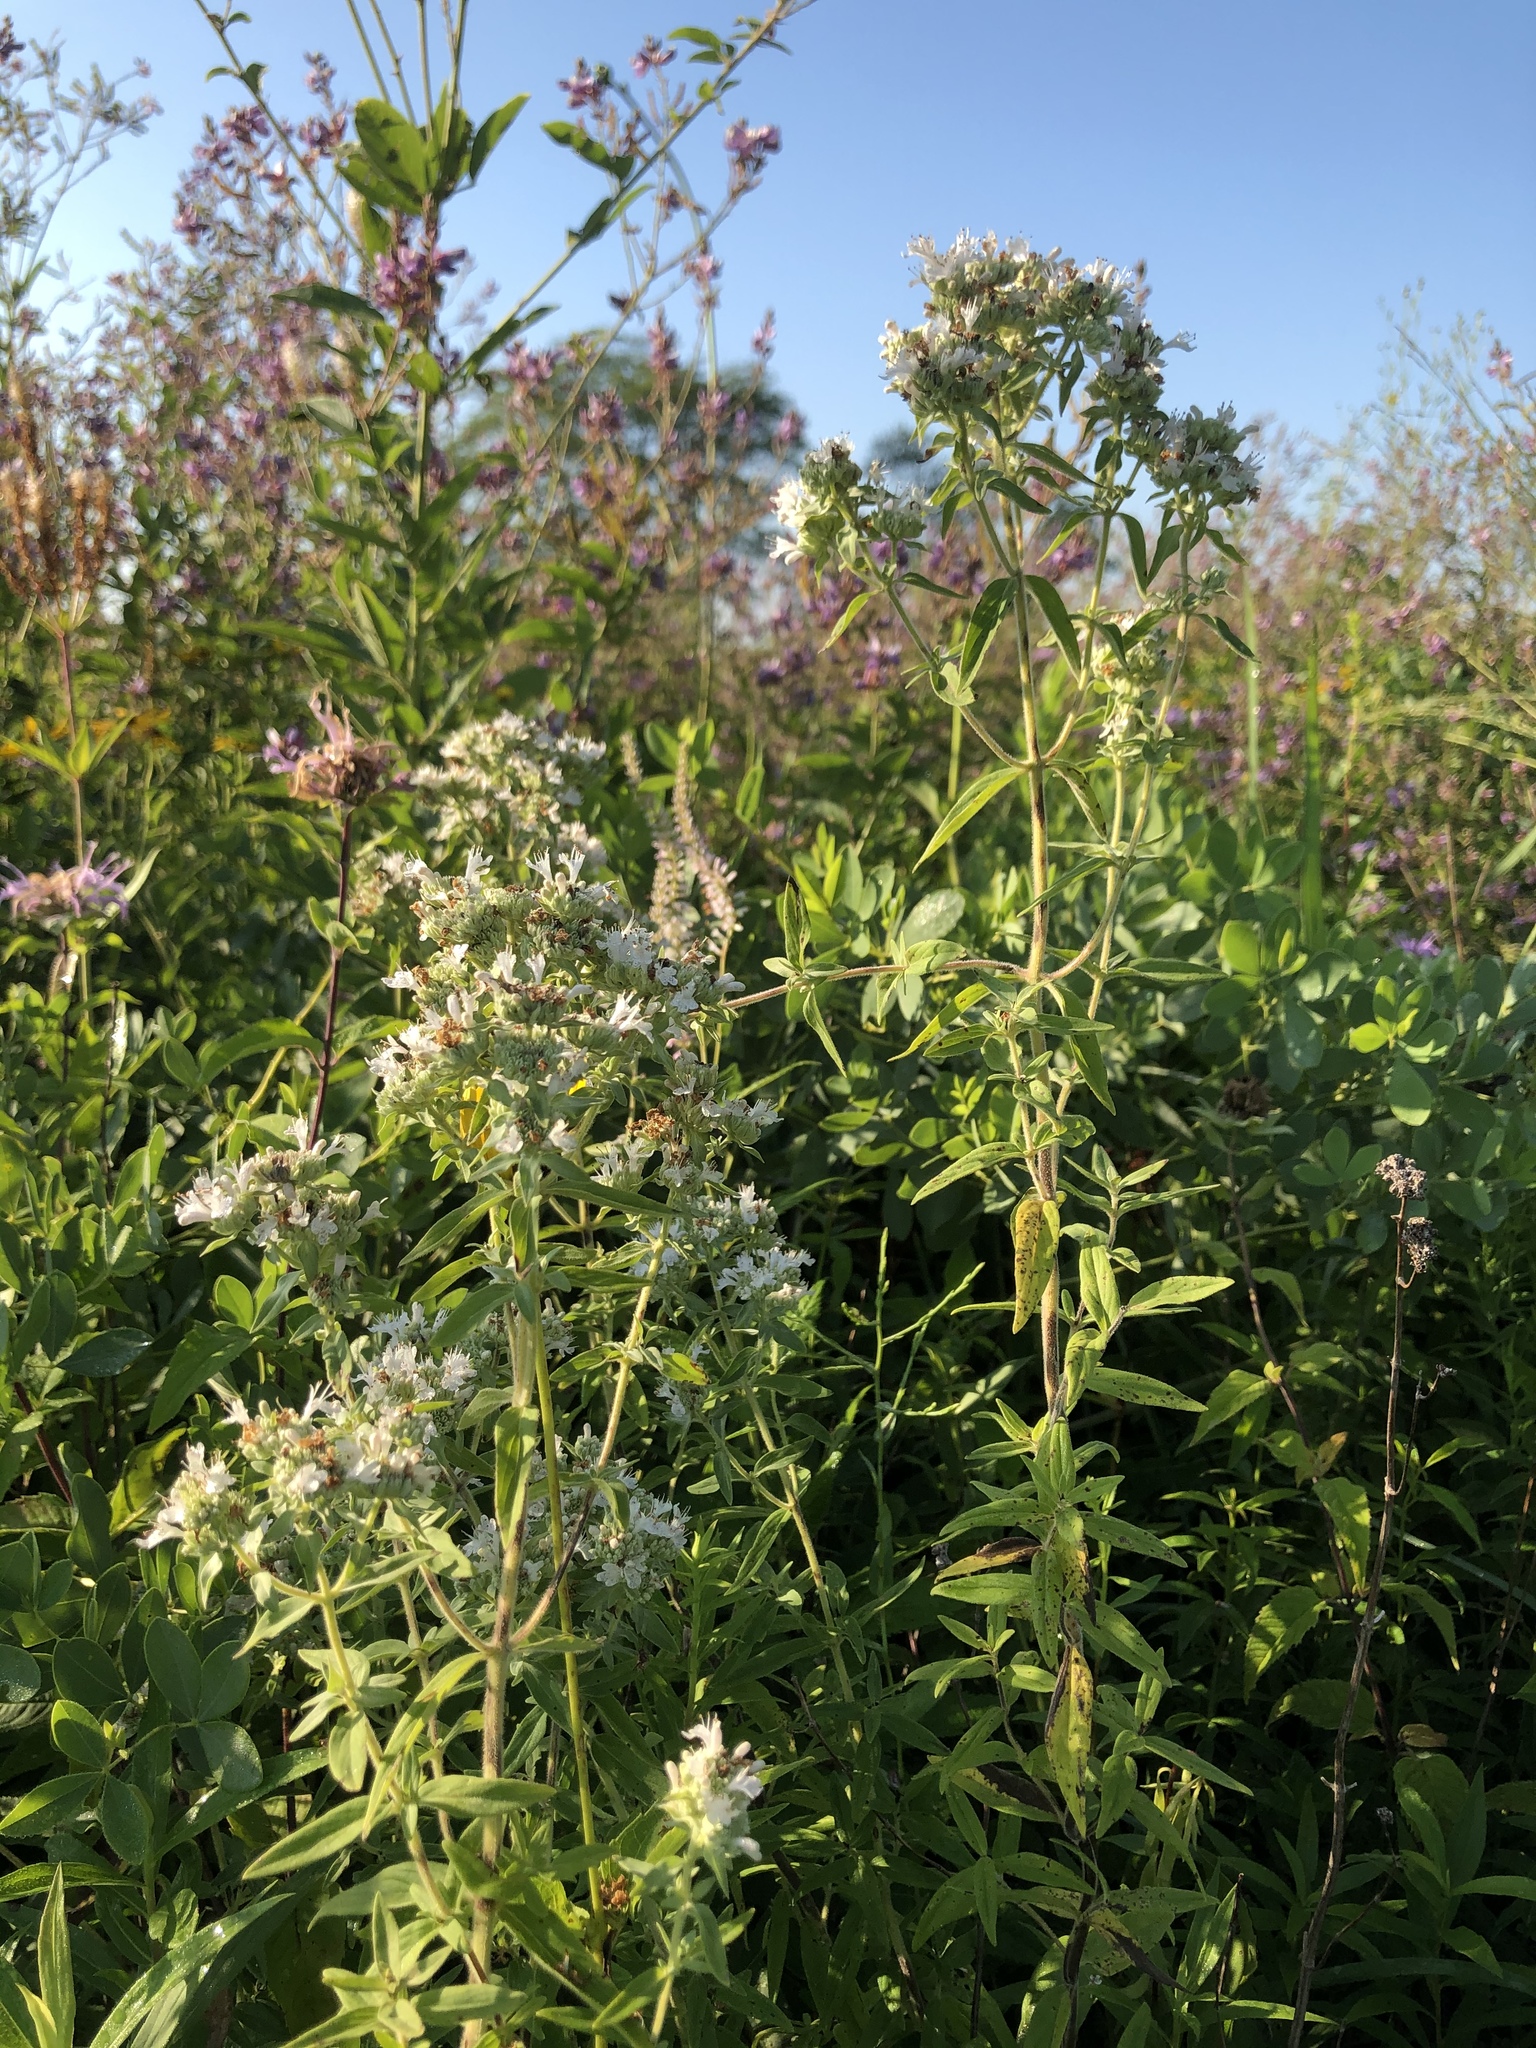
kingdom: Plantae
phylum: Tracheophyta
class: Magnoliopsida
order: Lamiales
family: Lamiaceae
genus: Pycnanthemum
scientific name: Pycnanthemum verticillatum
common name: Whorled mountain-mint
